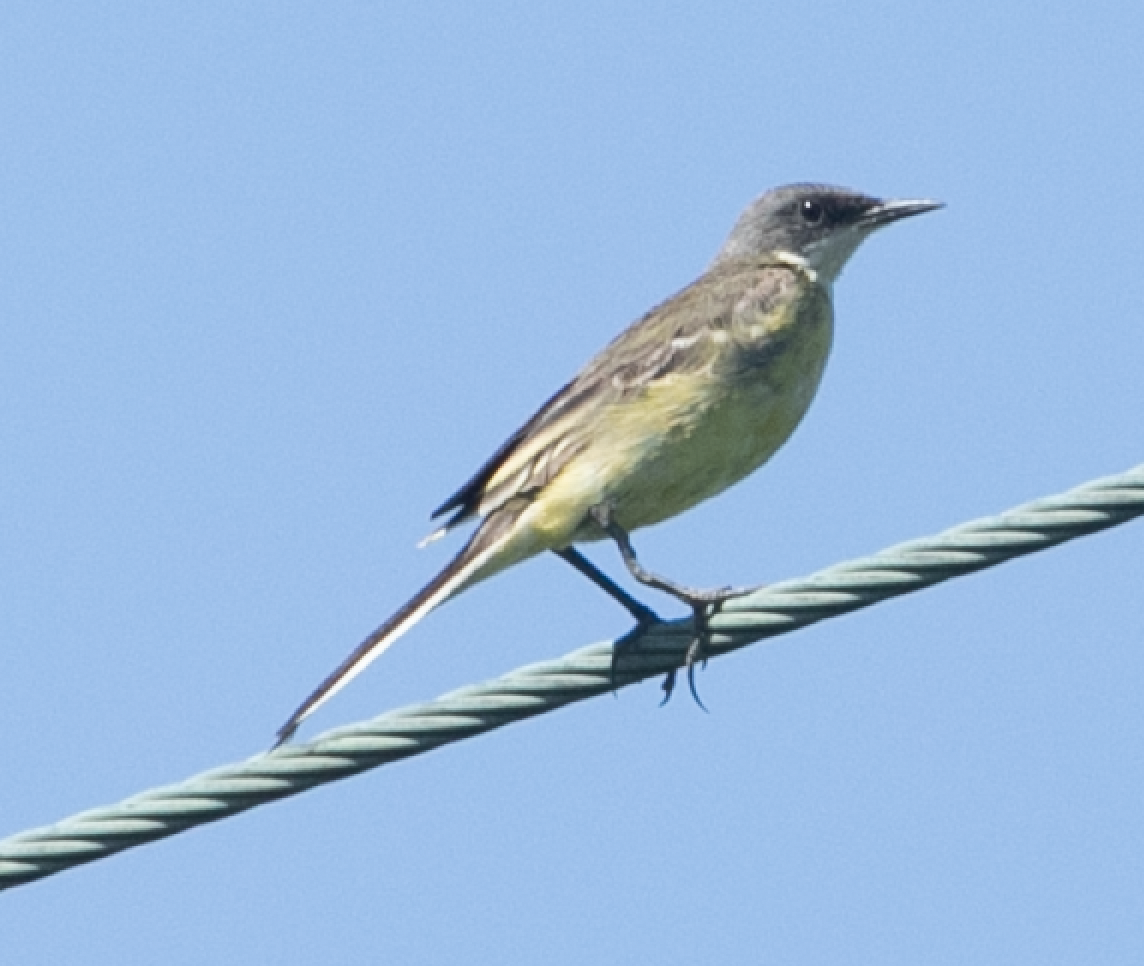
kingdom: Animalia
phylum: Chordata
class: Aves
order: Passeriformes
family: Motacillidae
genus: Motacilla
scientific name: Motacilla flava
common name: Western yellow wagtail
